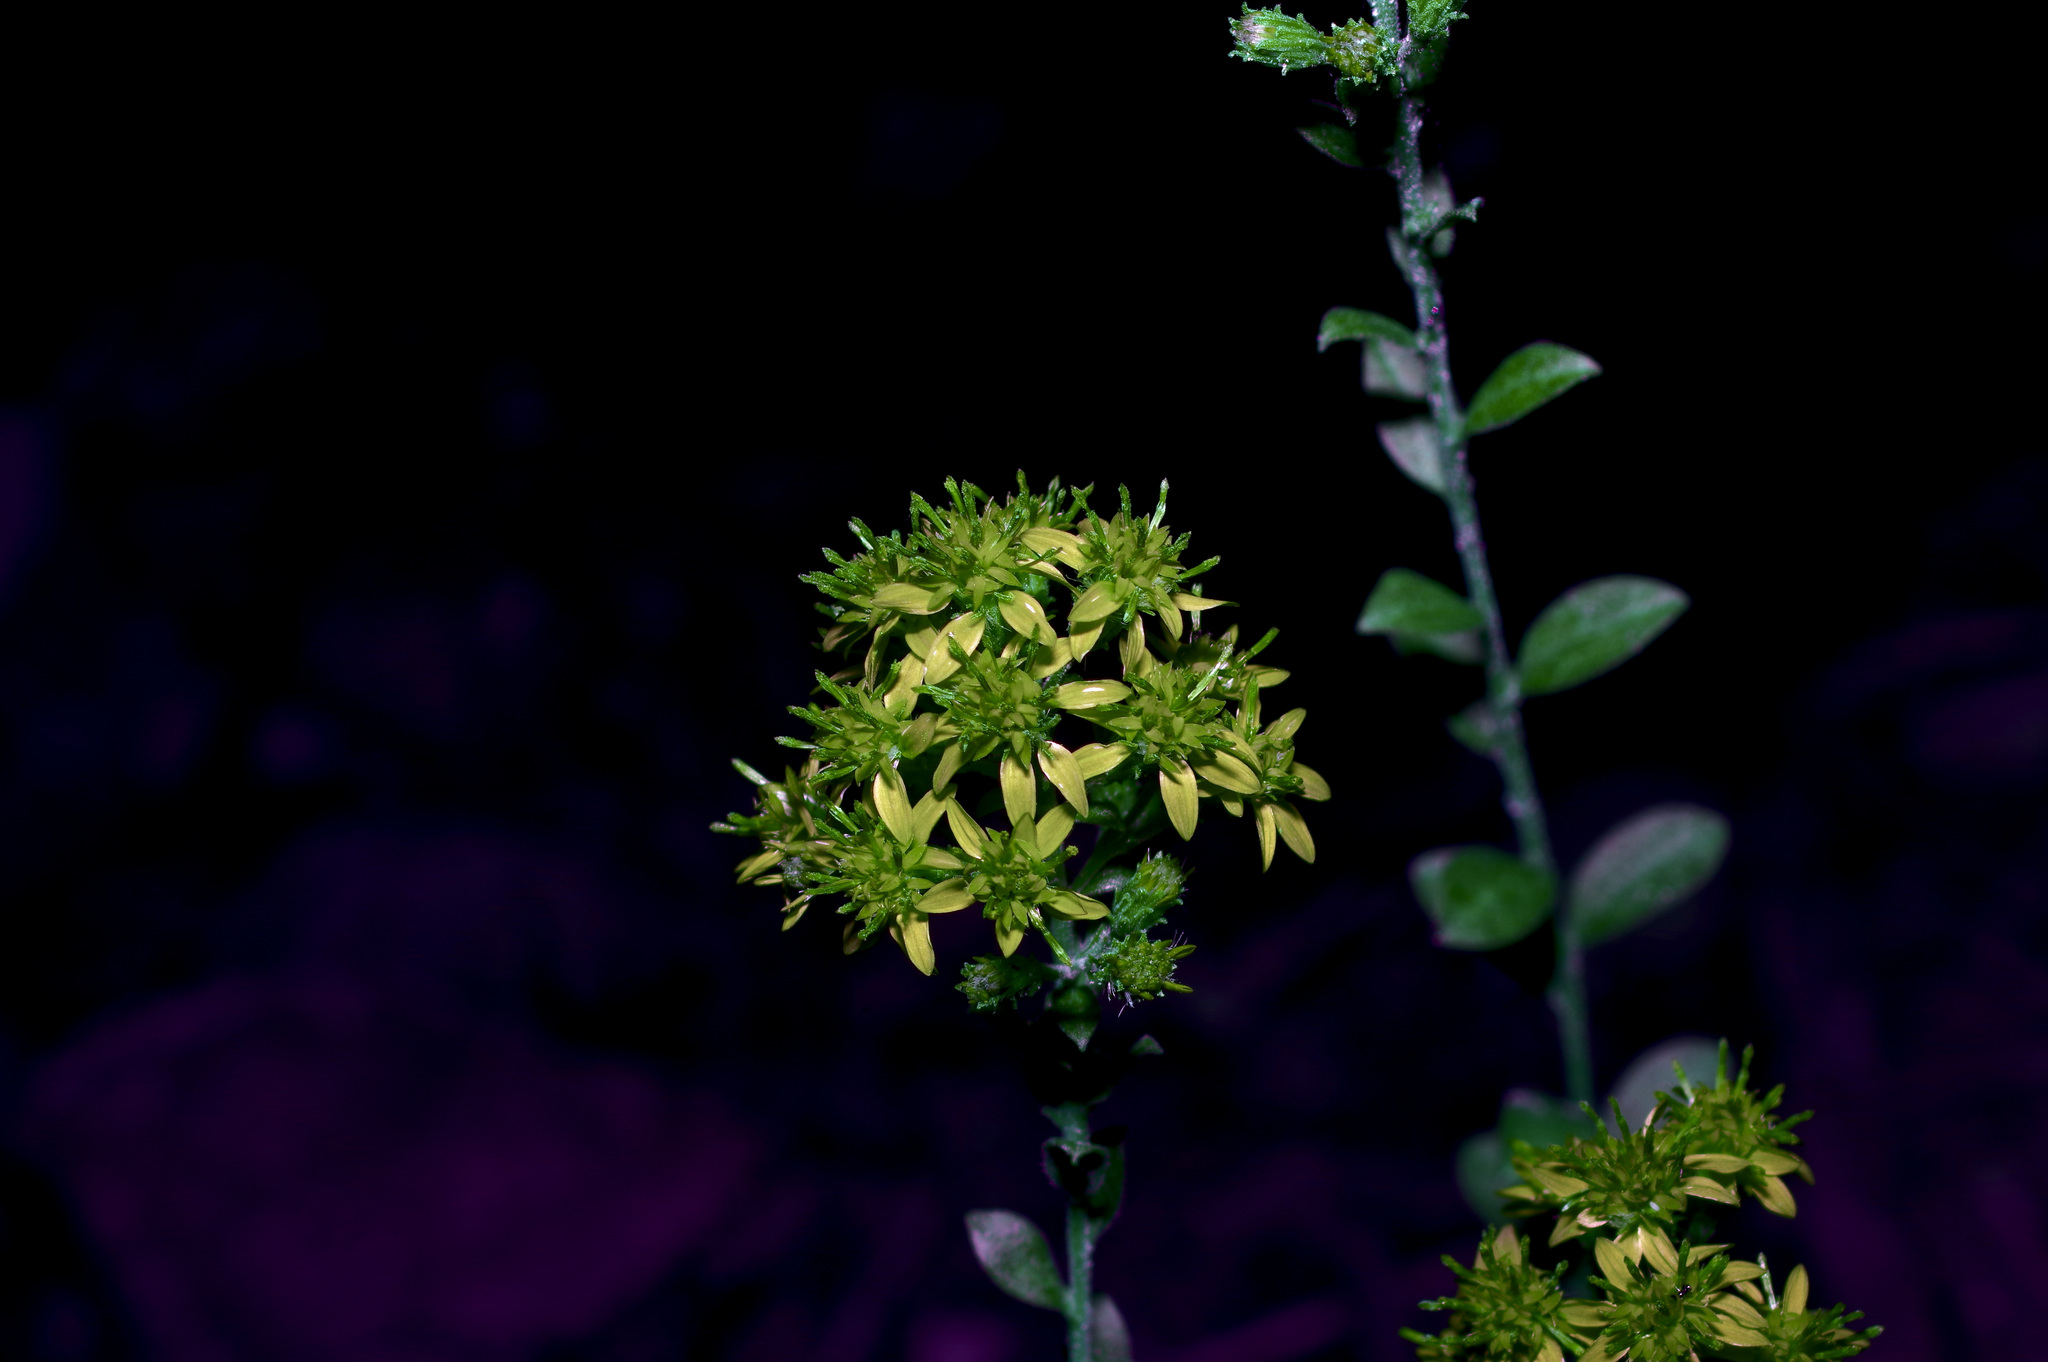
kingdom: Plantae
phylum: Tracheophyta
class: Magnoliopsida
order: Asterales
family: Asteraceae
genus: Solidago
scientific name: Solidago petiolaris
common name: Downy ragged goldenrod
